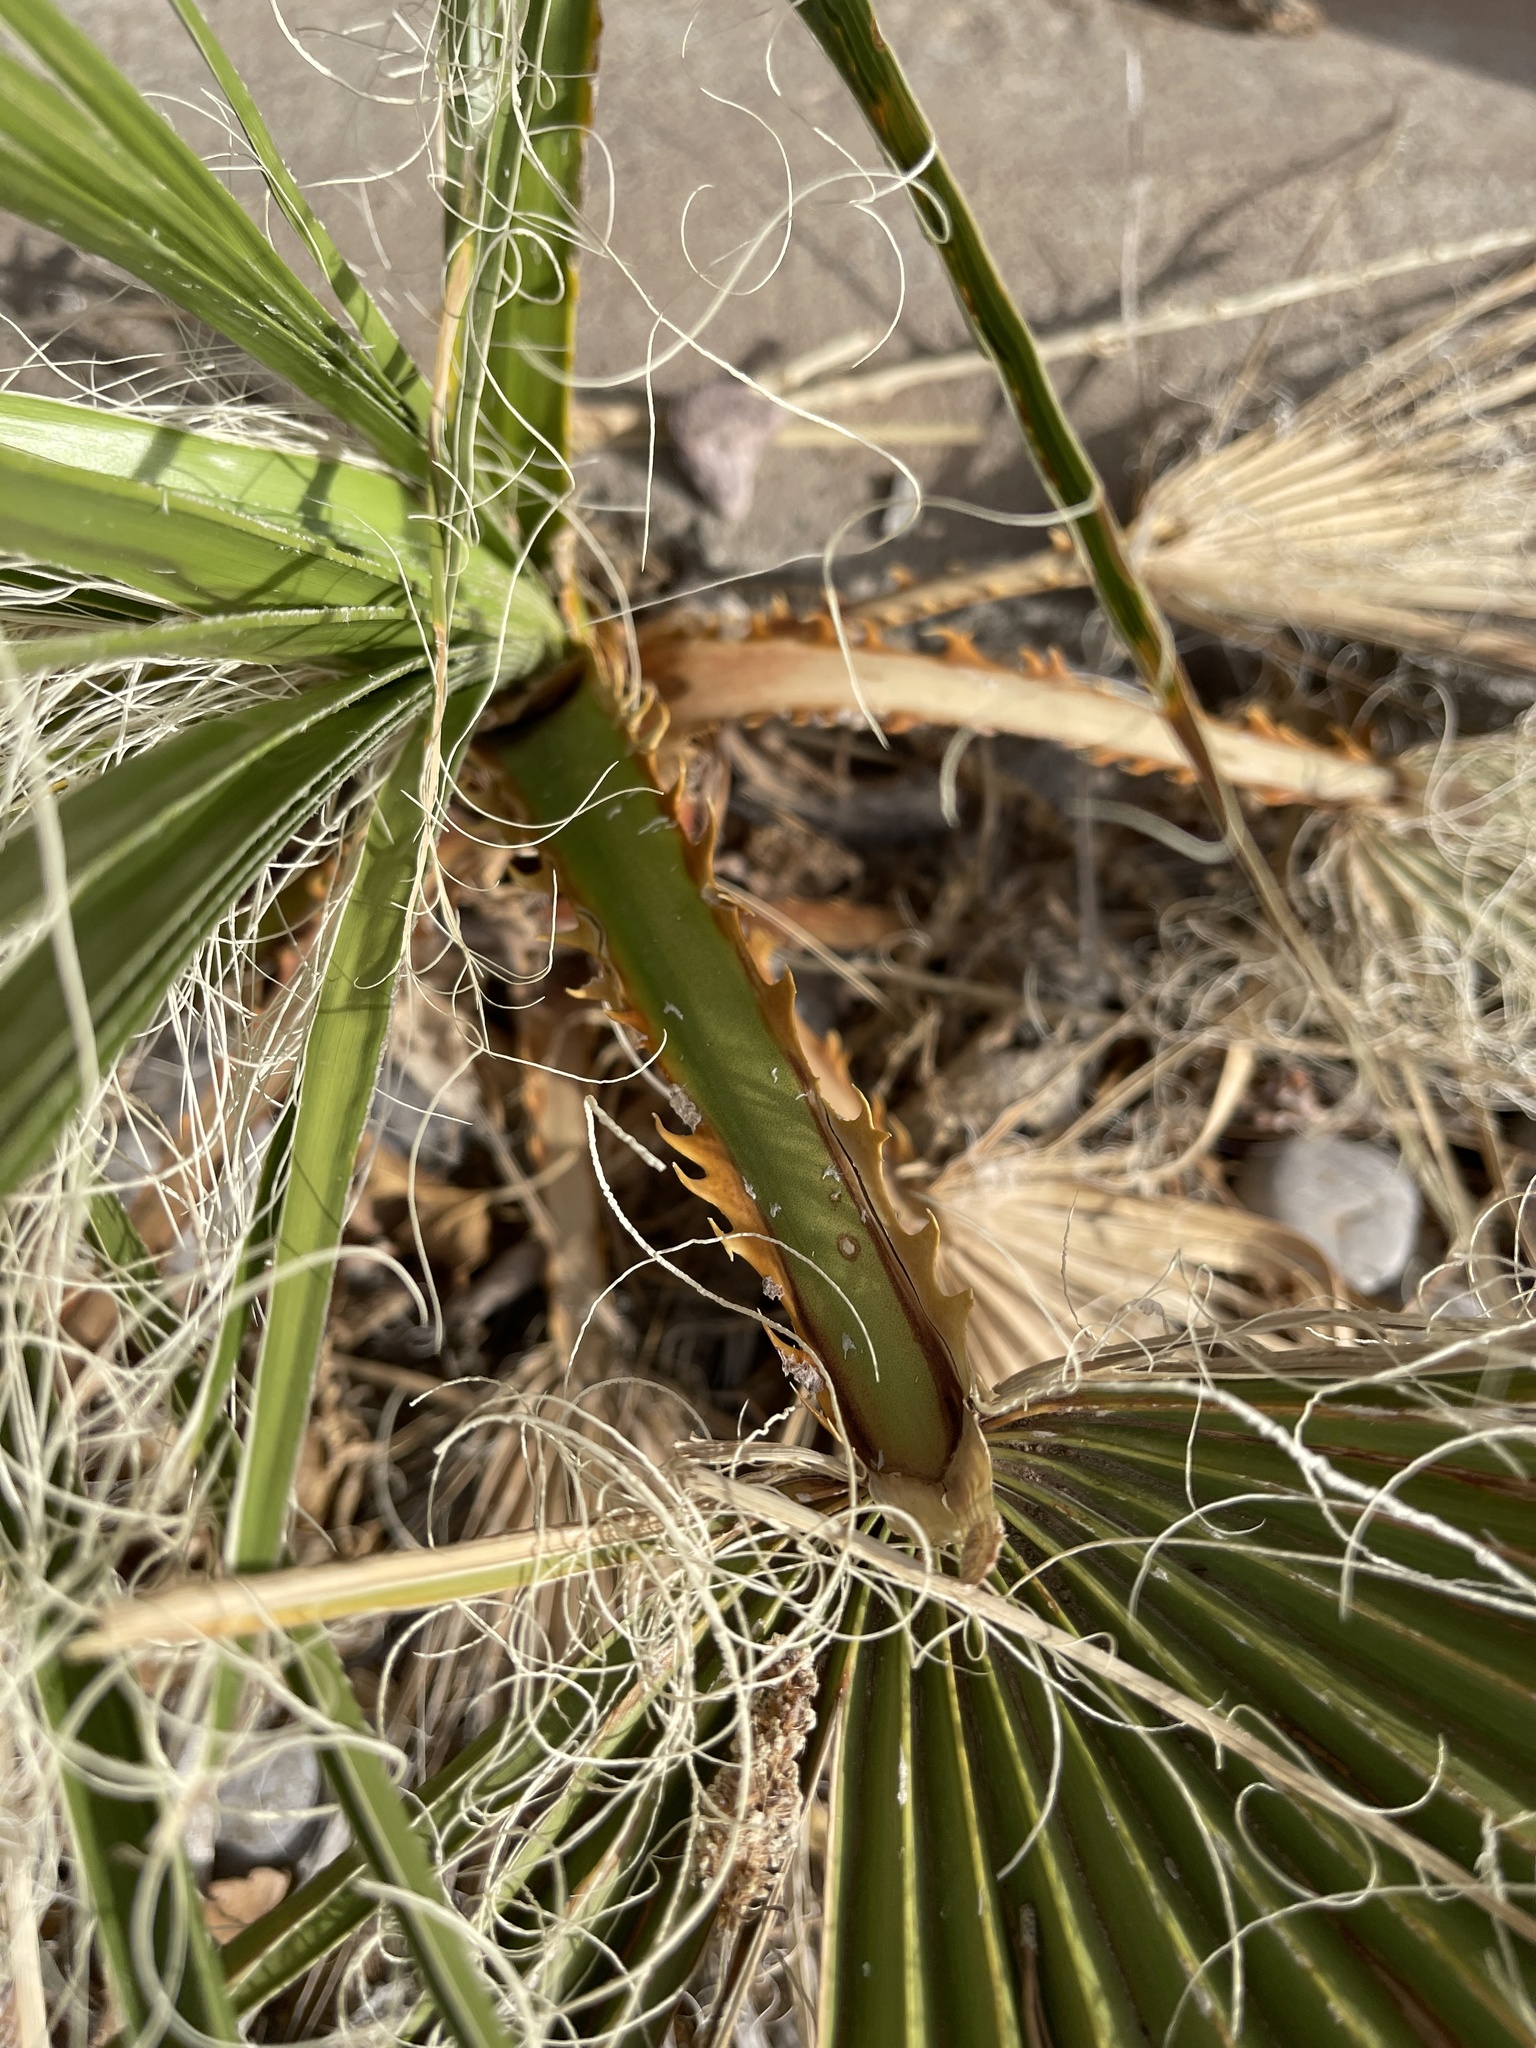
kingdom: Plantae
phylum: Tracheophyta
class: Liliopsida
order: Arecales
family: Arecaceae
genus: Washingtonia
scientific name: Washingtonia filifera
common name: California fan palm
